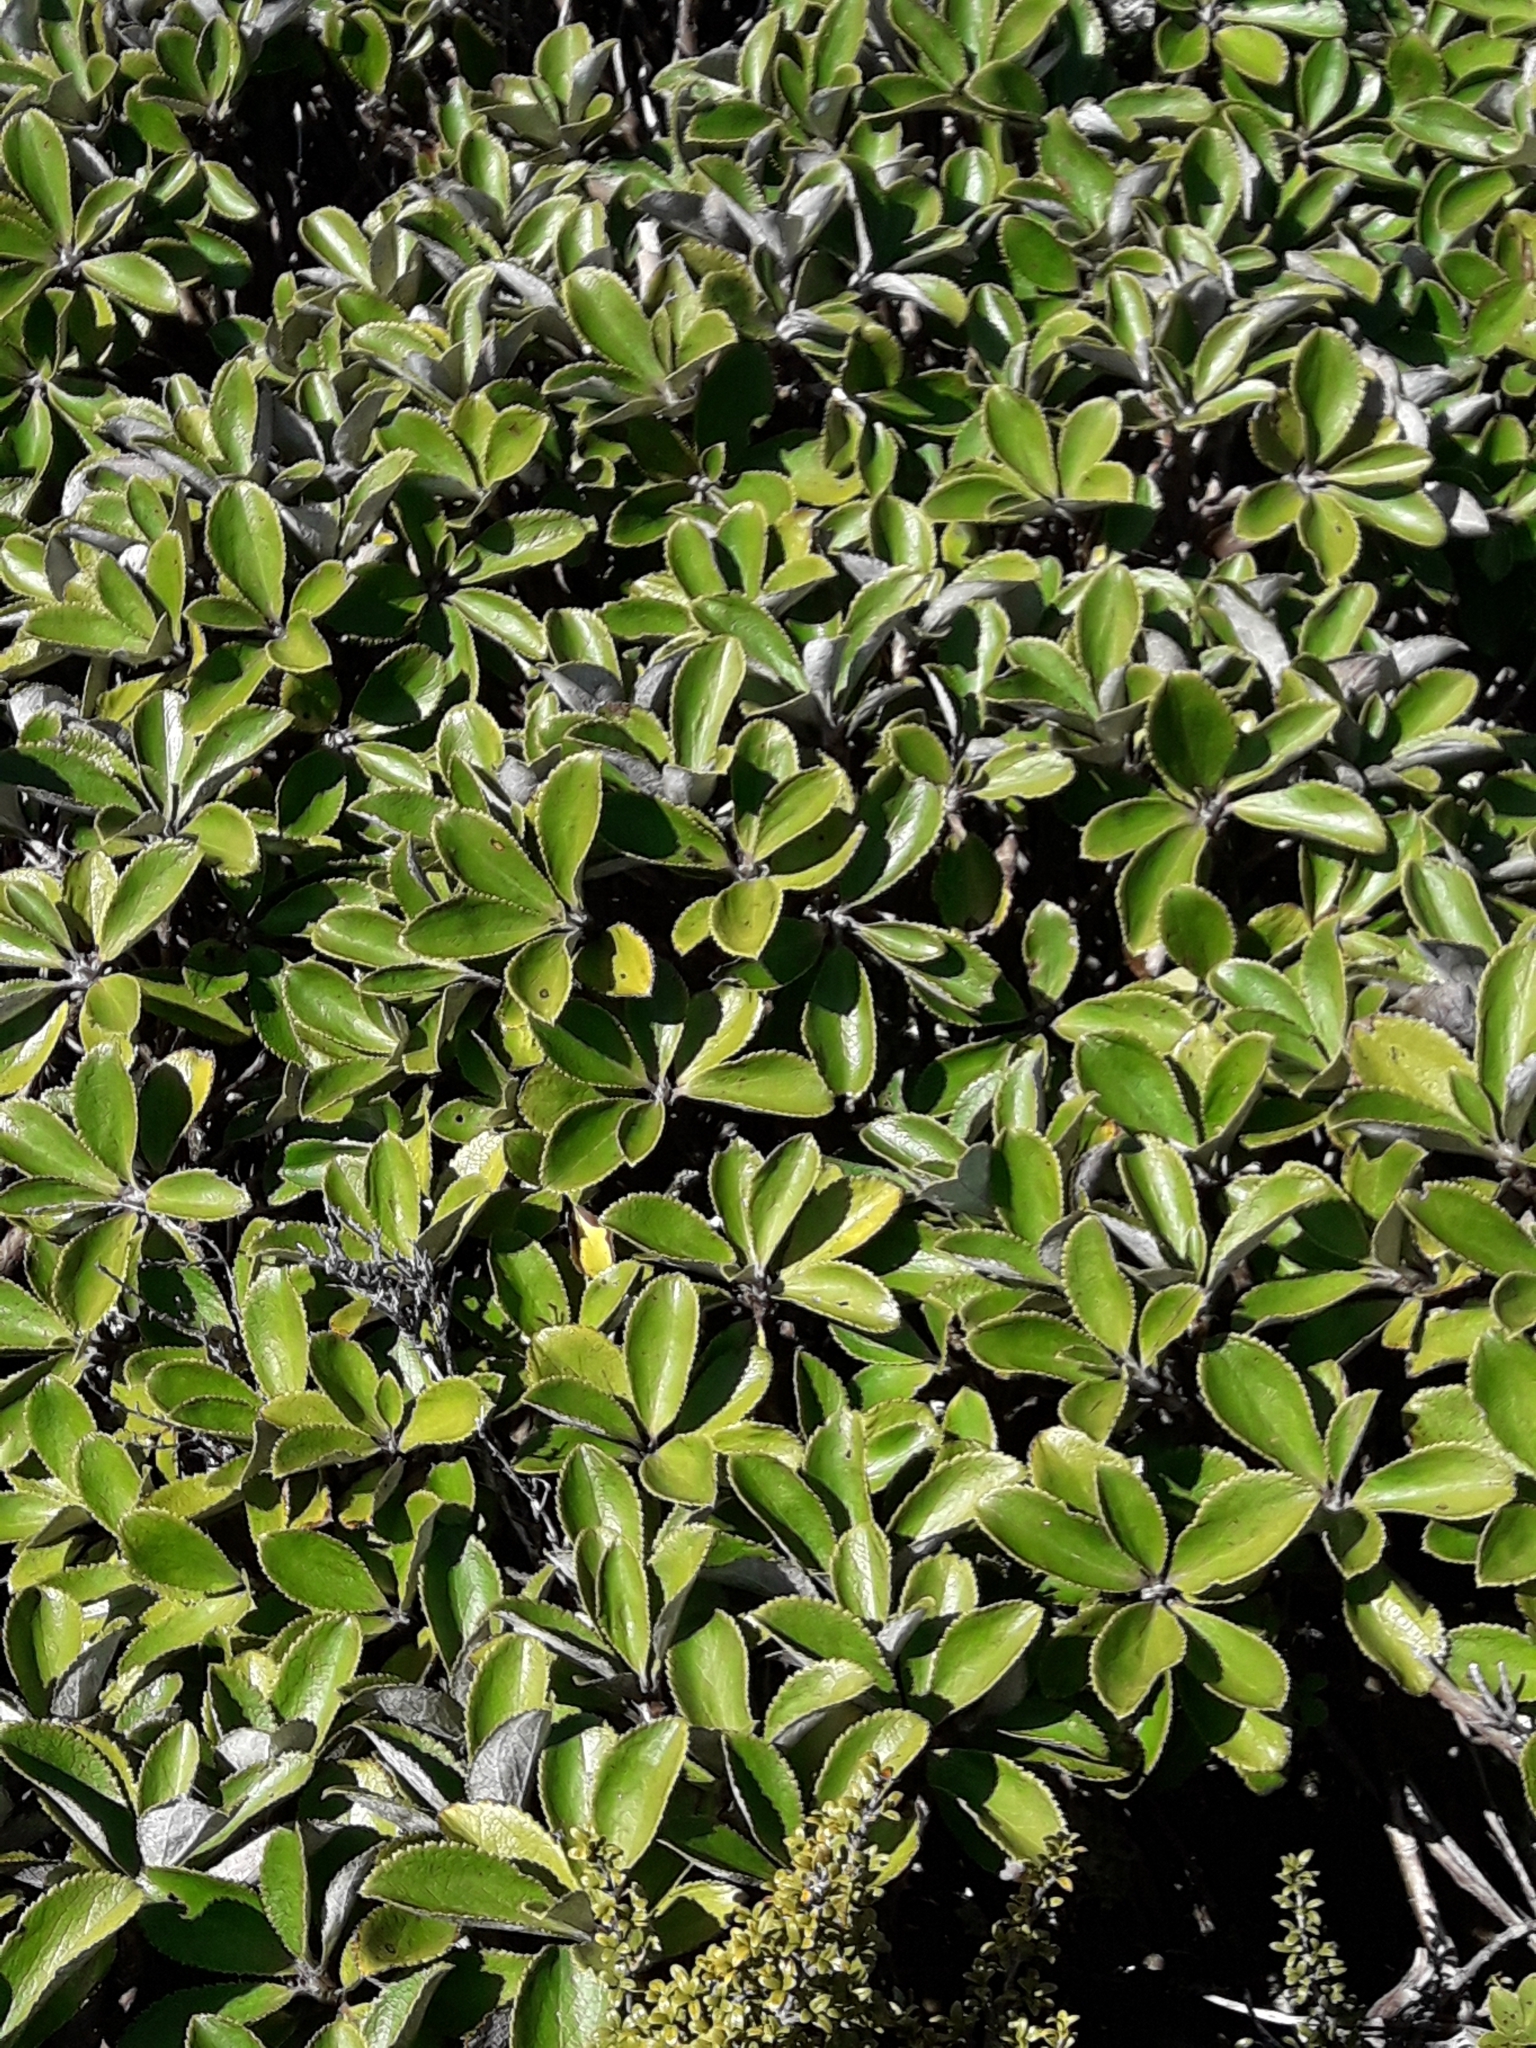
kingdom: Plantae
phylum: Tracheophyta
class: Magnoliopsida
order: Asterales
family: Asteraceae
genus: Macrolearia
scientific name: Macrolearia colensoi
